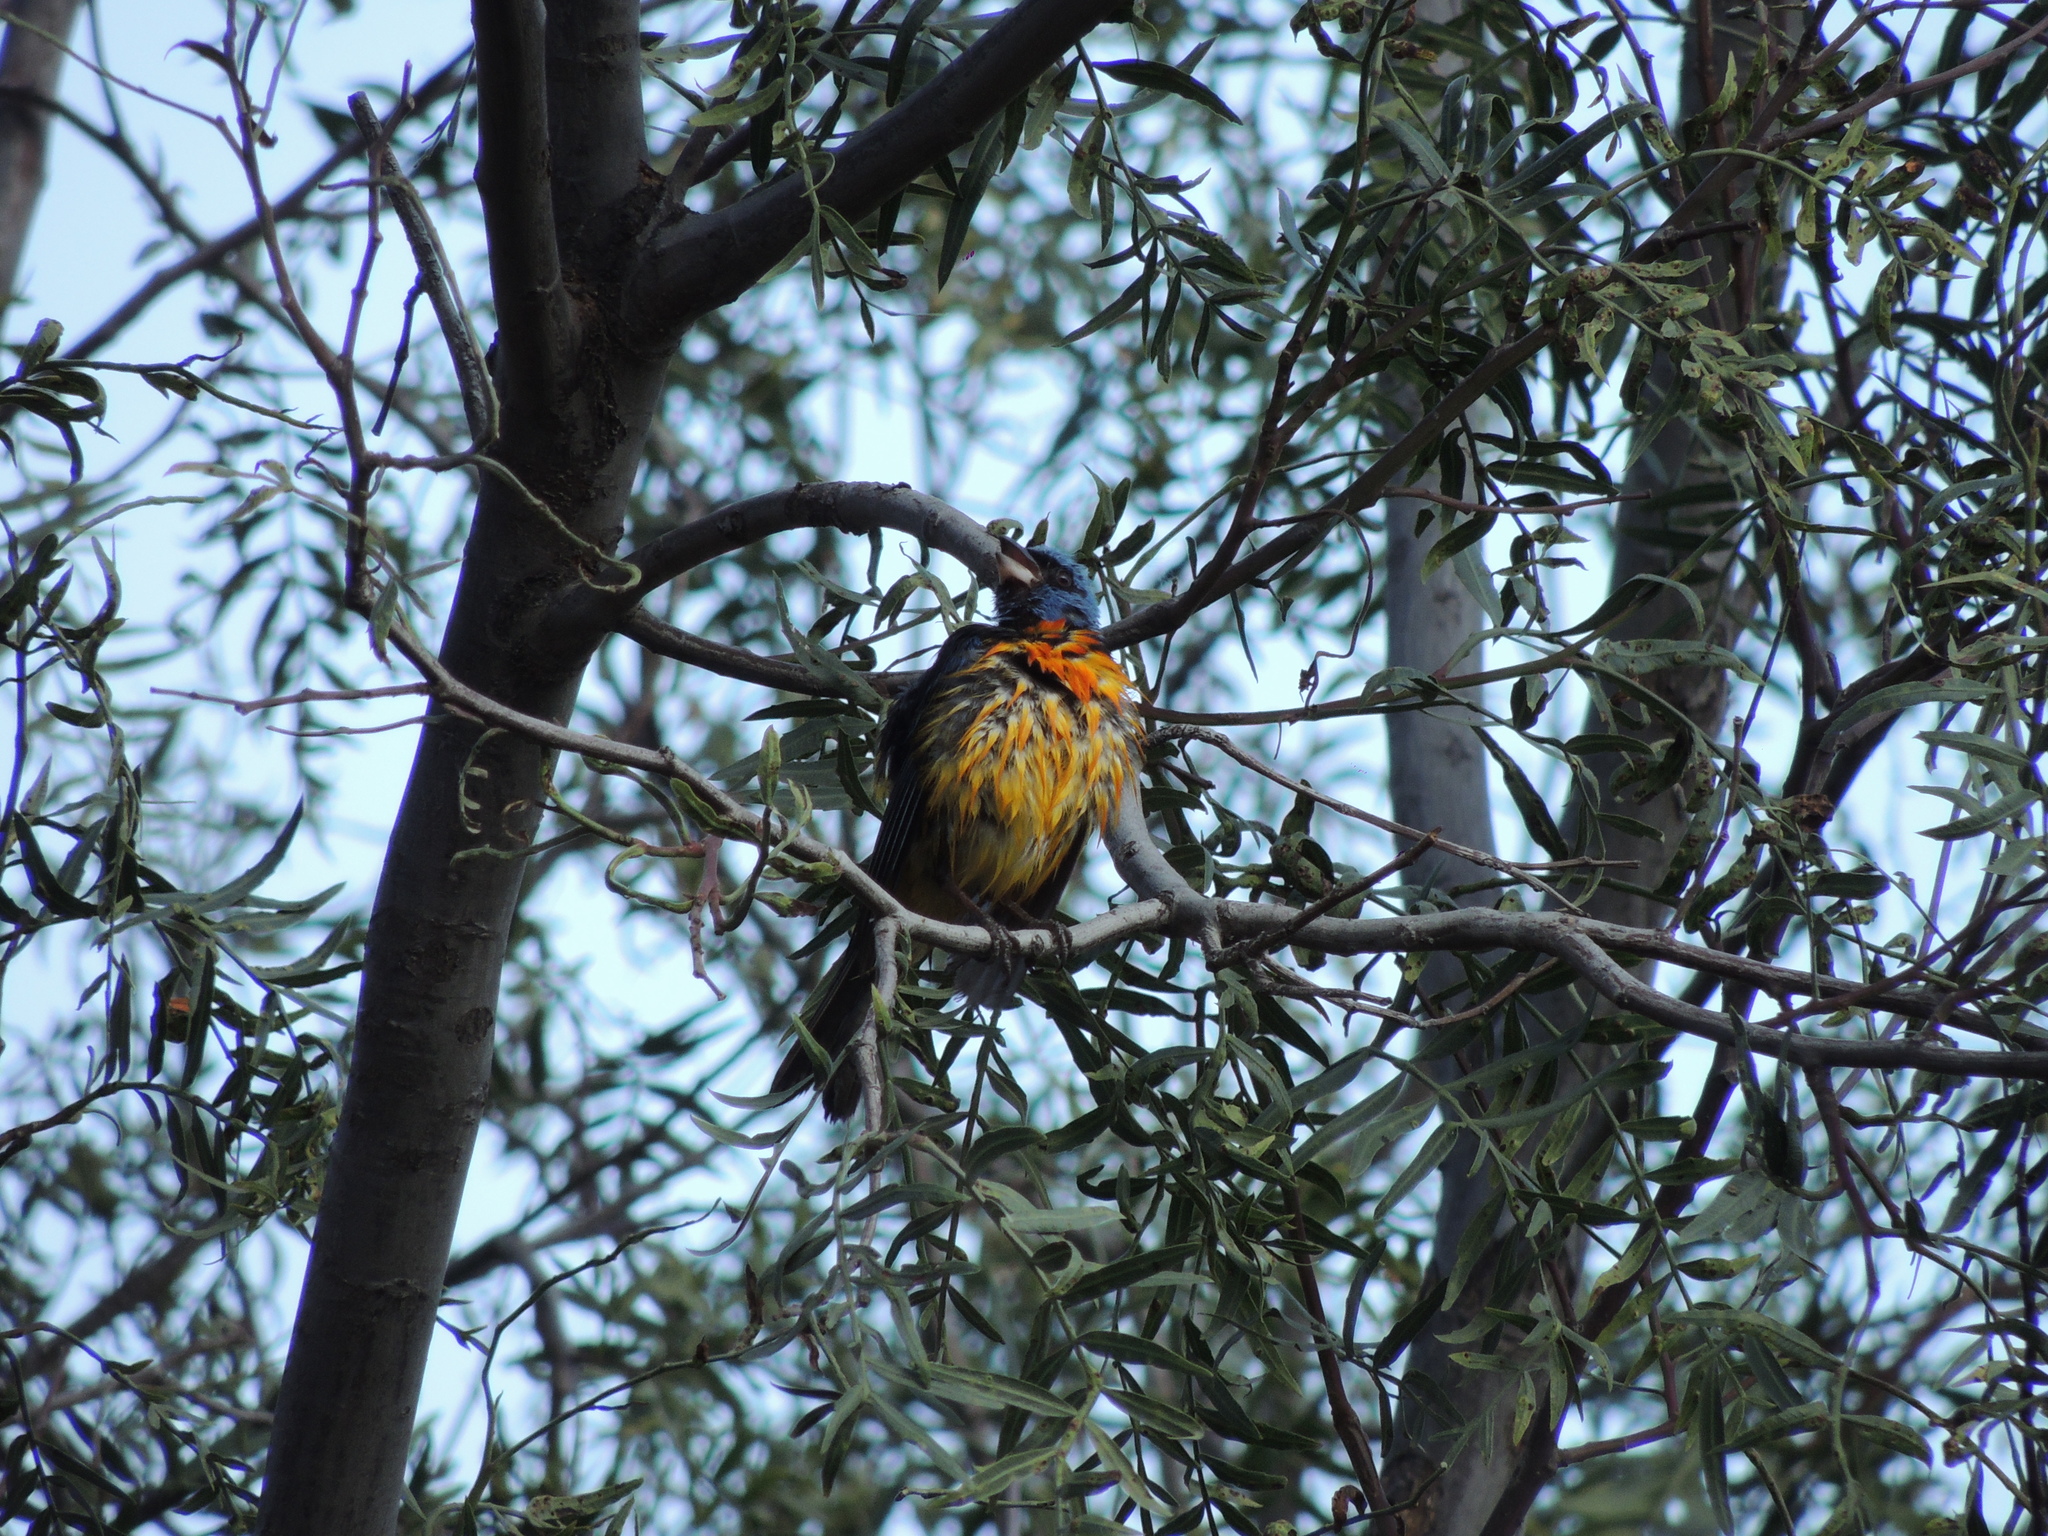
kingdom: Animalia
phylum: Chordata
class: Aves
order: Passeriformes
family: Thraupidae
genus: Rauenia
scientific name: Rauenia bonariensis
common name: Blue-and-yellow tanager
